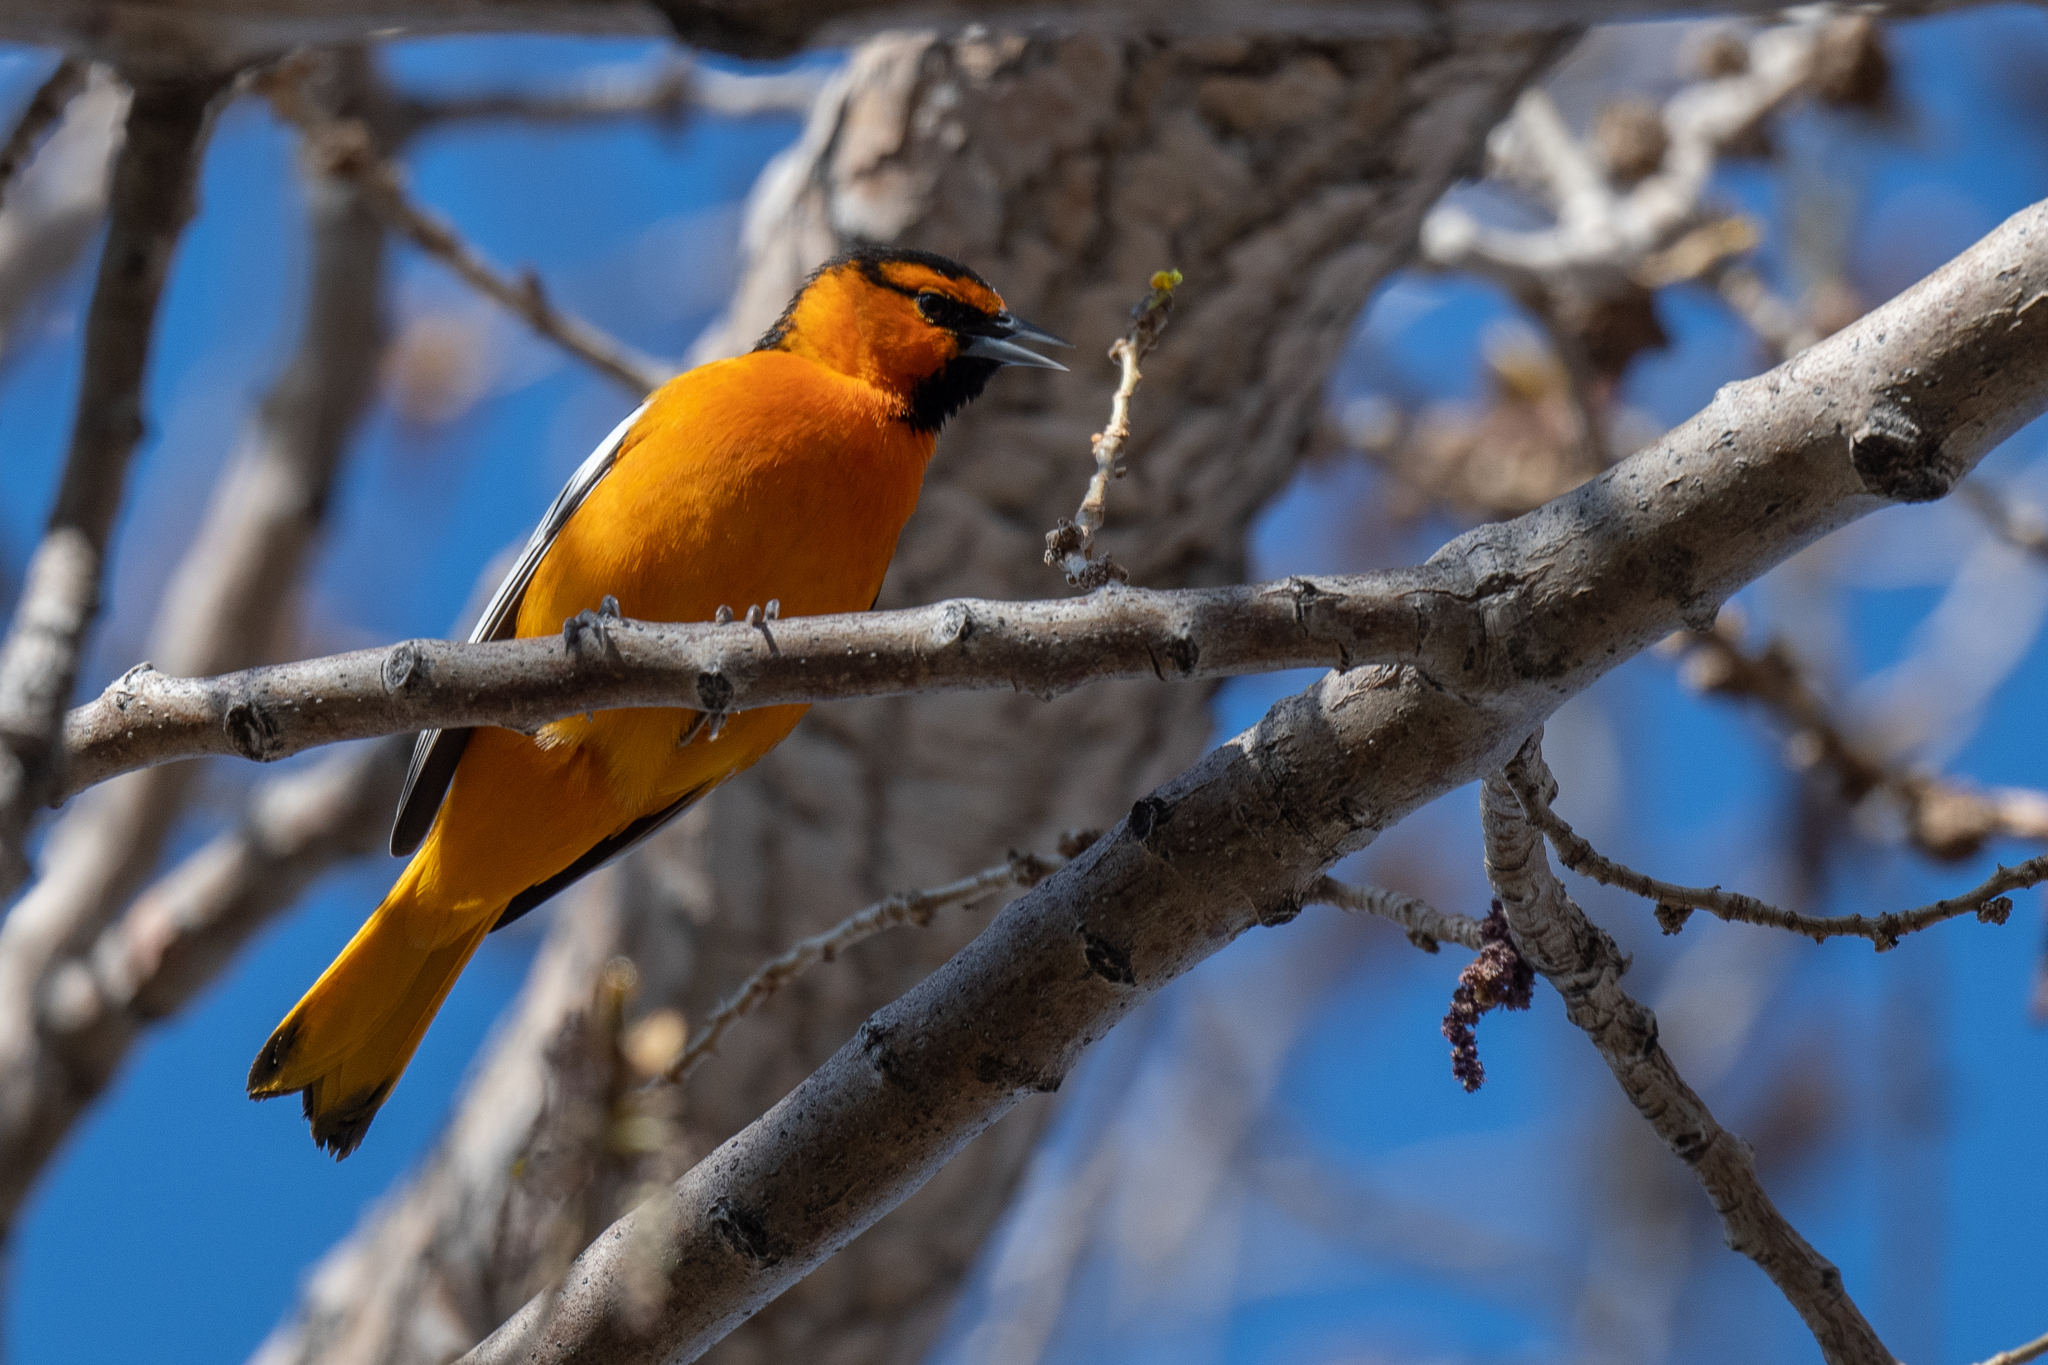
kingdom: Animalia
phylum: Chordata
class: Aves
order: Passeriformes
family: Icteridae
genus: Icterus
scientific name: Icterus bullockii
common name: Bullock's oriole
